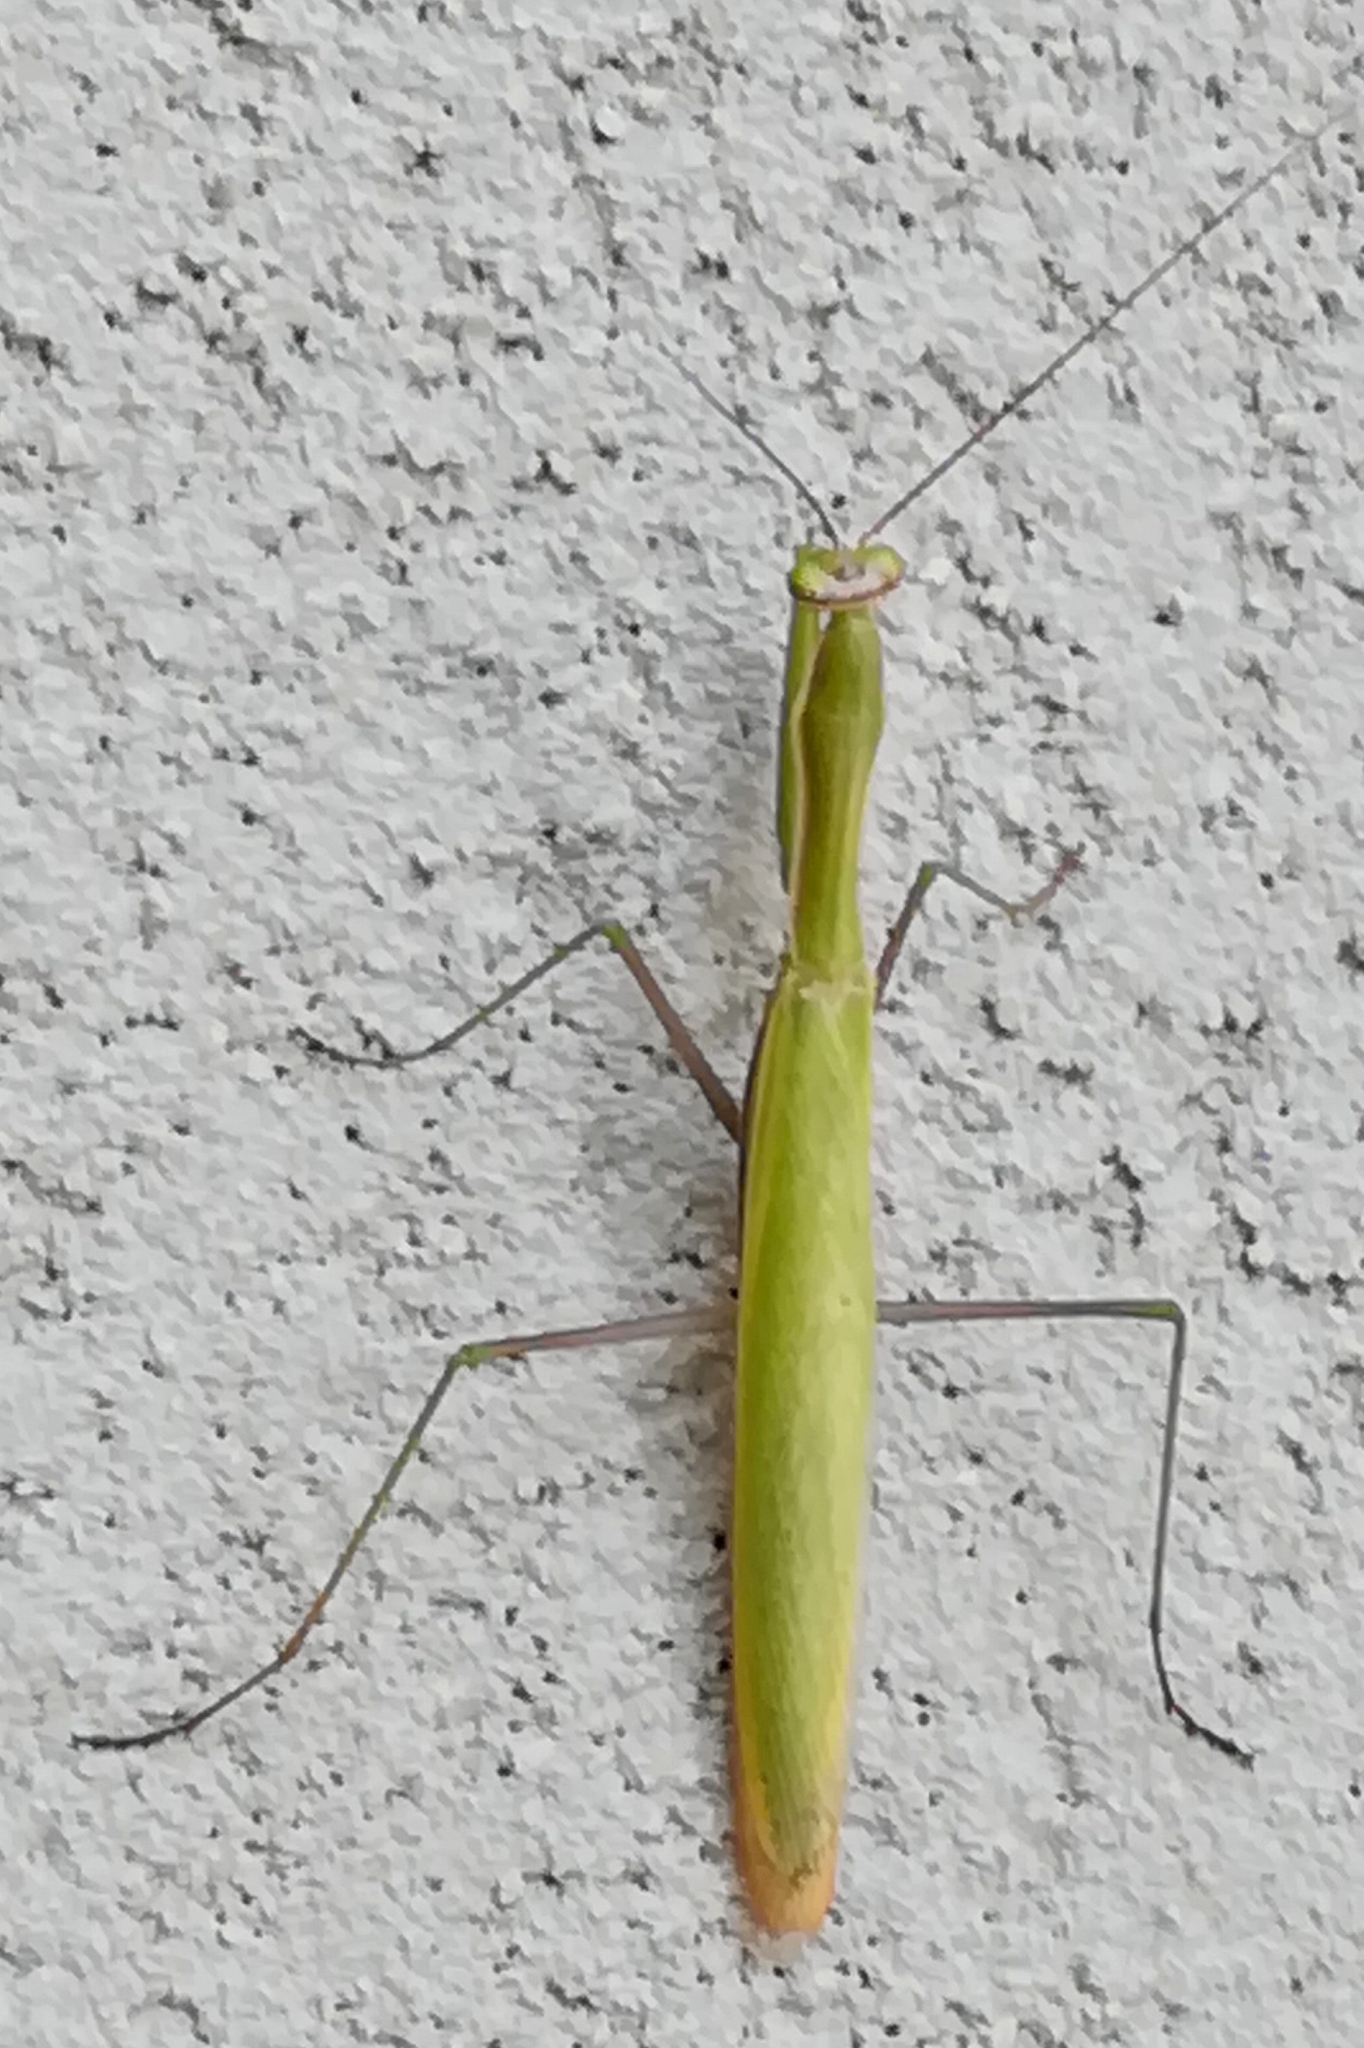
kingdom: Animalia
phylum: Arthropoda
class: Insecta
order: Mantodea
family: Mantidae
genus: Mantis
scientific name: Mantis religiosa
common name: Praying mantis
